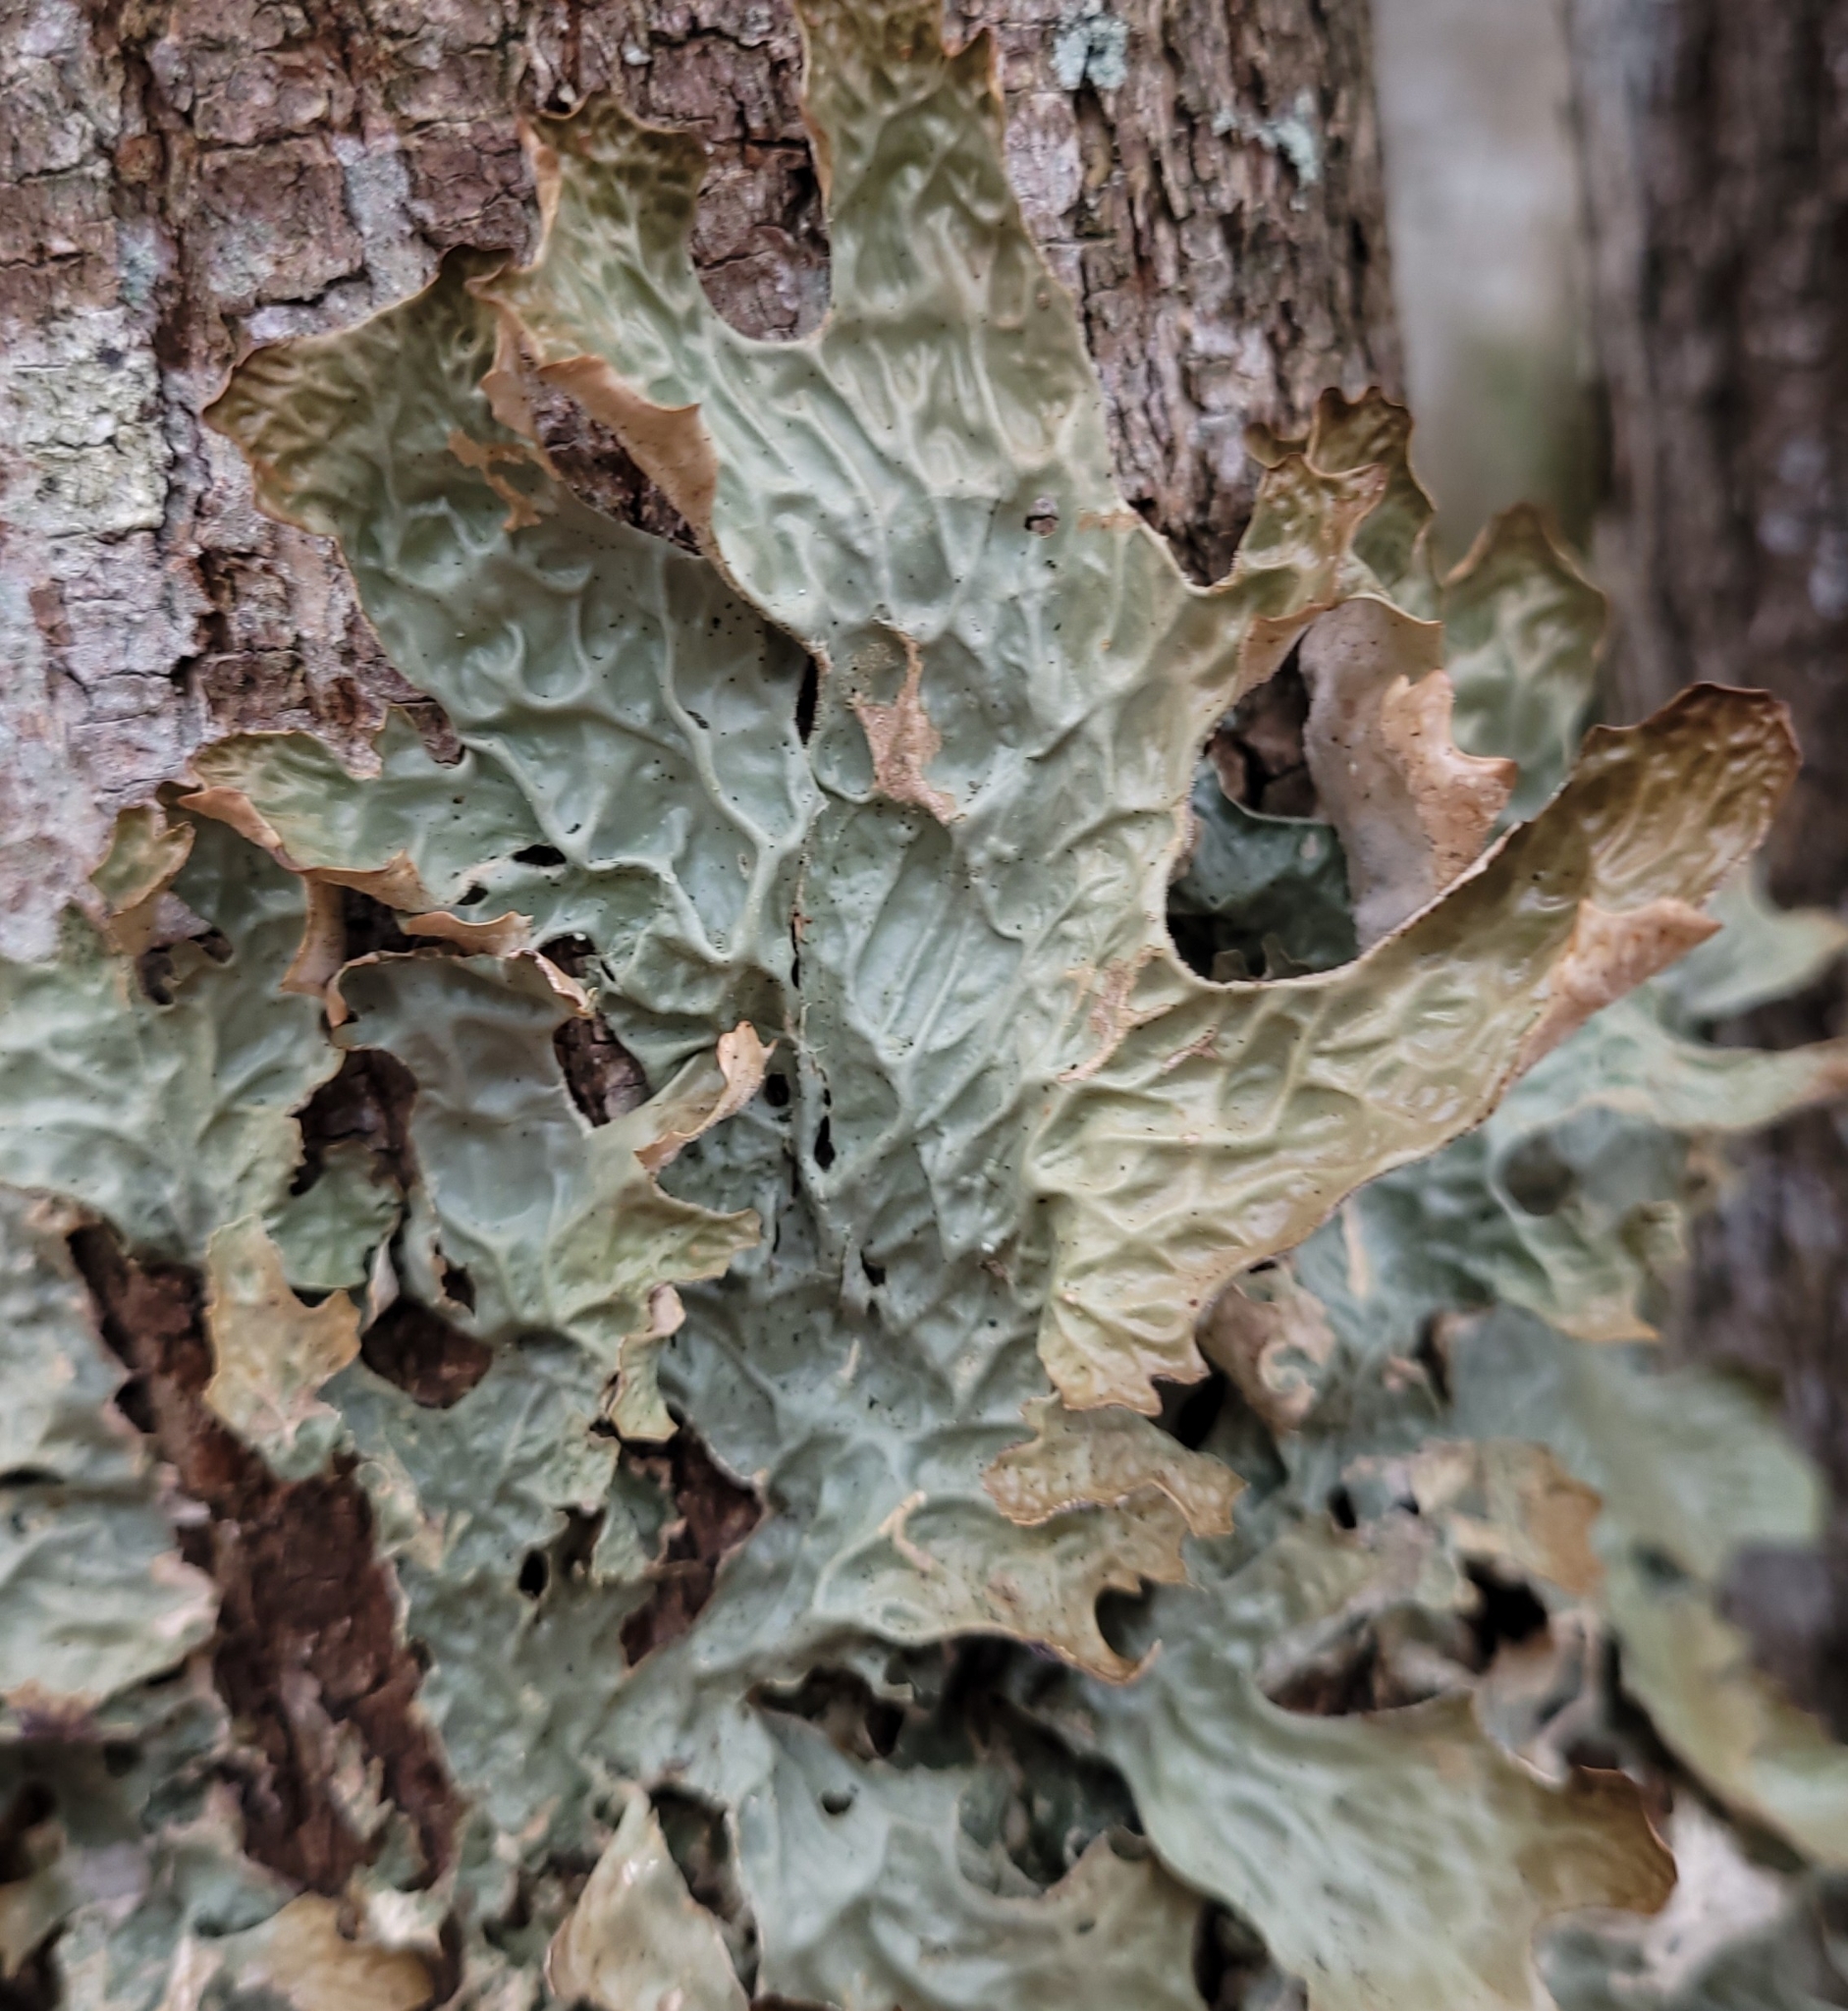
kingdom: Fungi
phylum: Ascomycota
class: Lecanoromycetes
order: Peltigerales
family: Lobariaceae
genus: Lobaria
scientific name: Lobaria pulmonaria
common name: Lungwort
